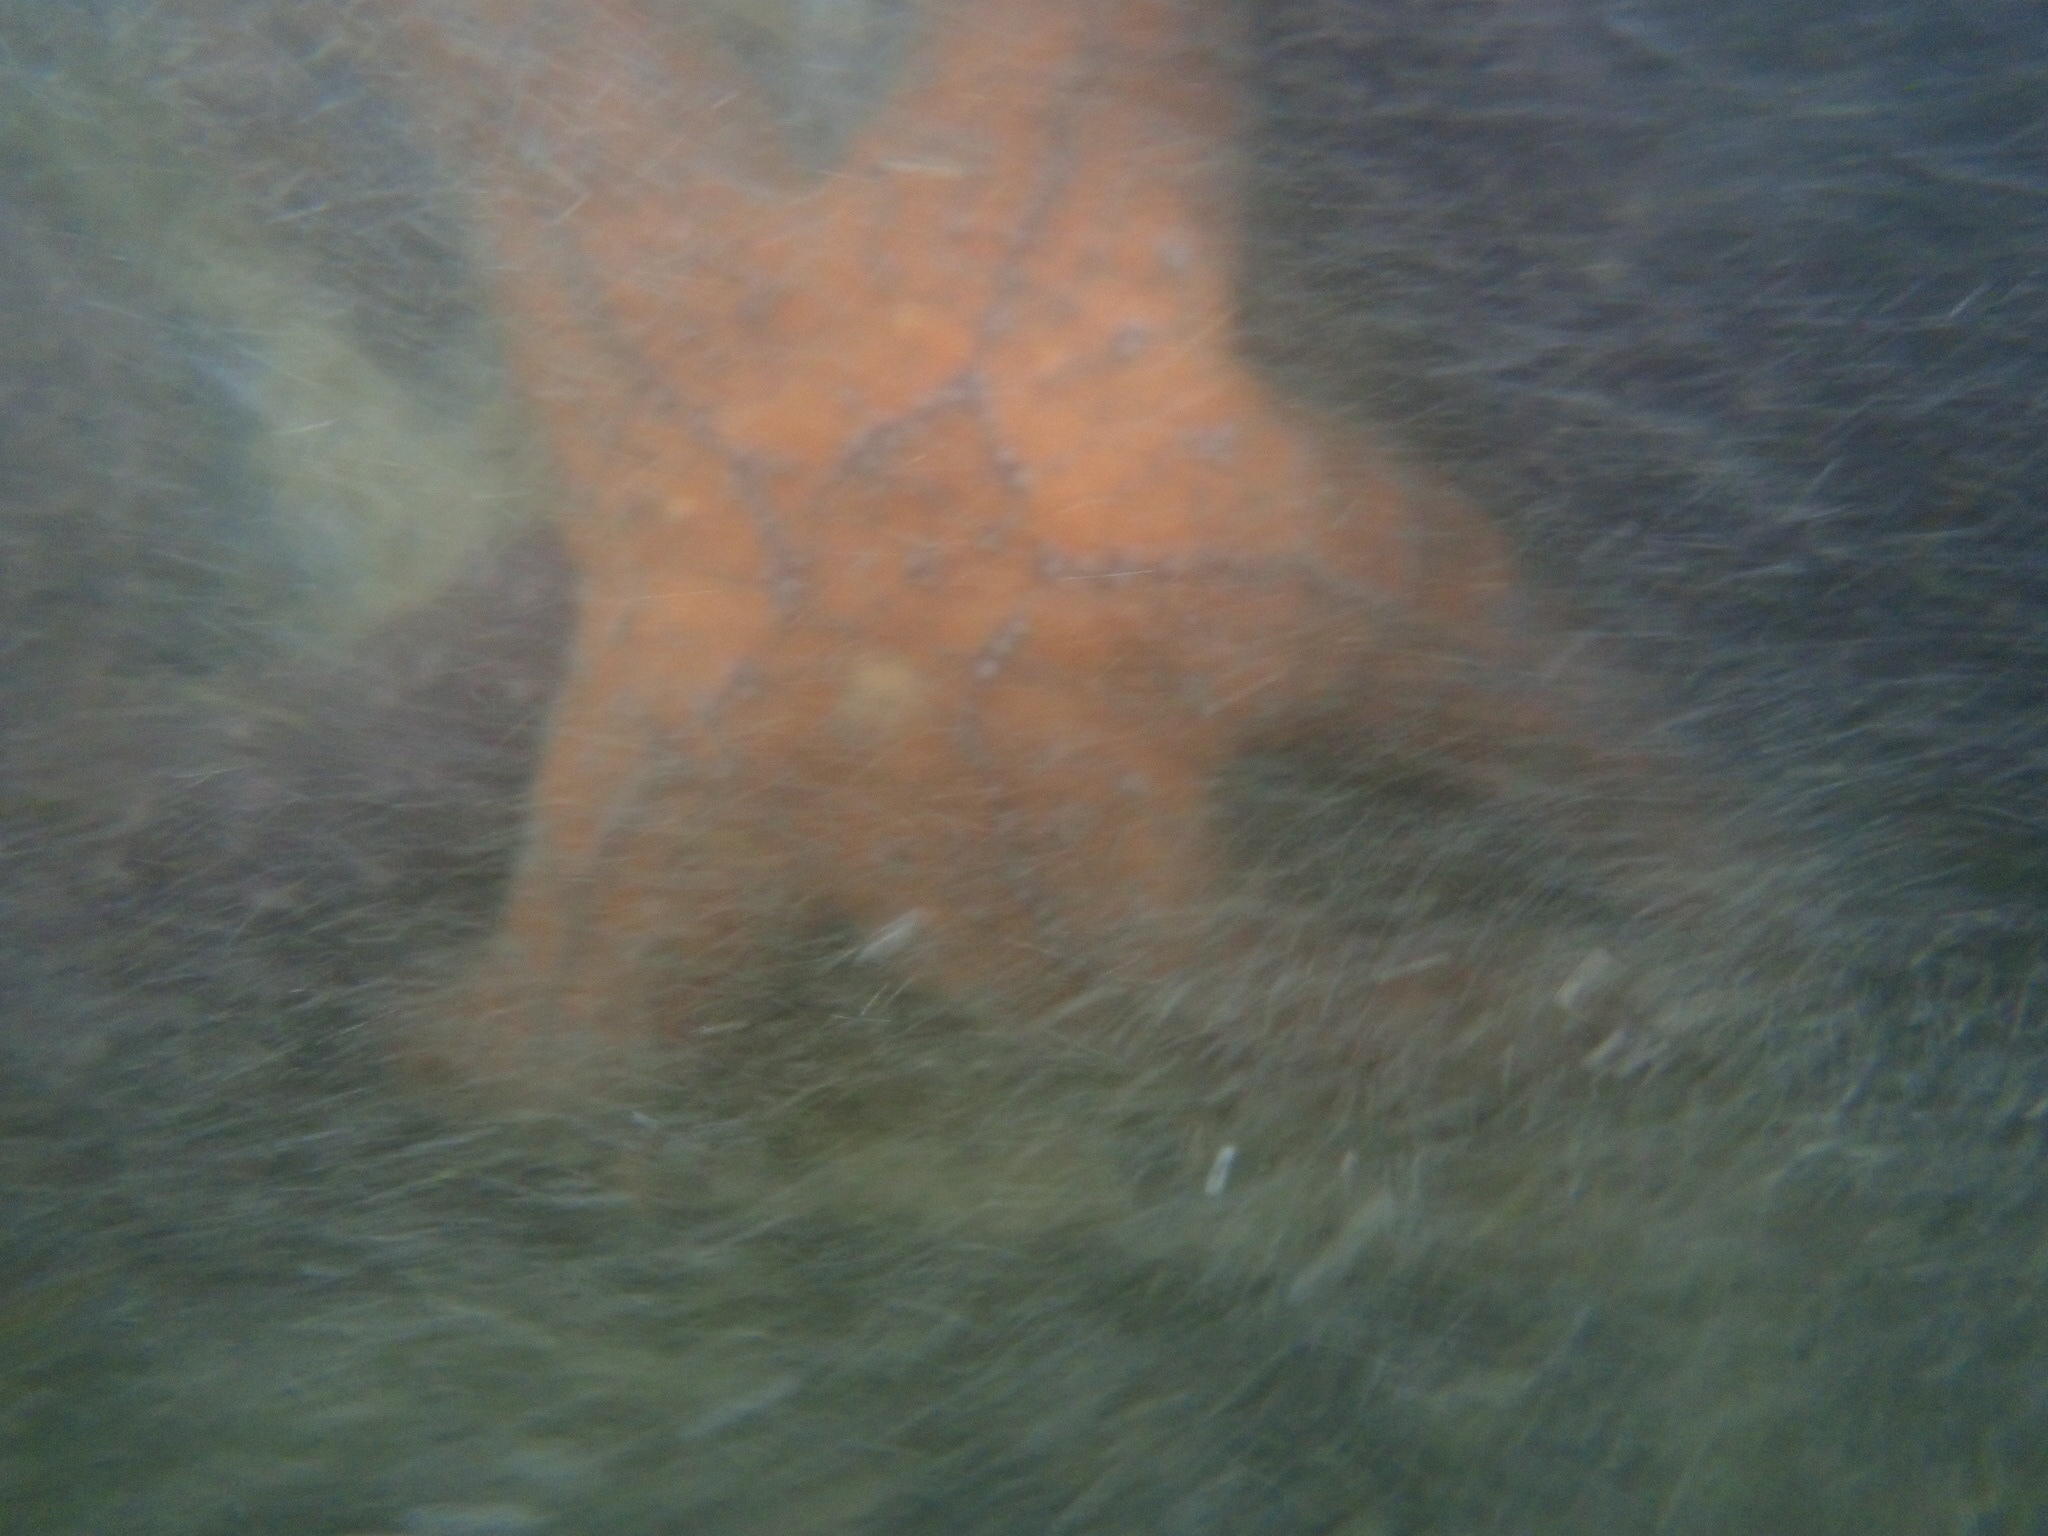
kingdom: Animalia
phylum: Echinodermata
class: Asteroidea
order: Forcipulatida
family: Asteriidae
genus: Pisaster
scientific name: Pisaster ochraceus
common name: Ochre stars
